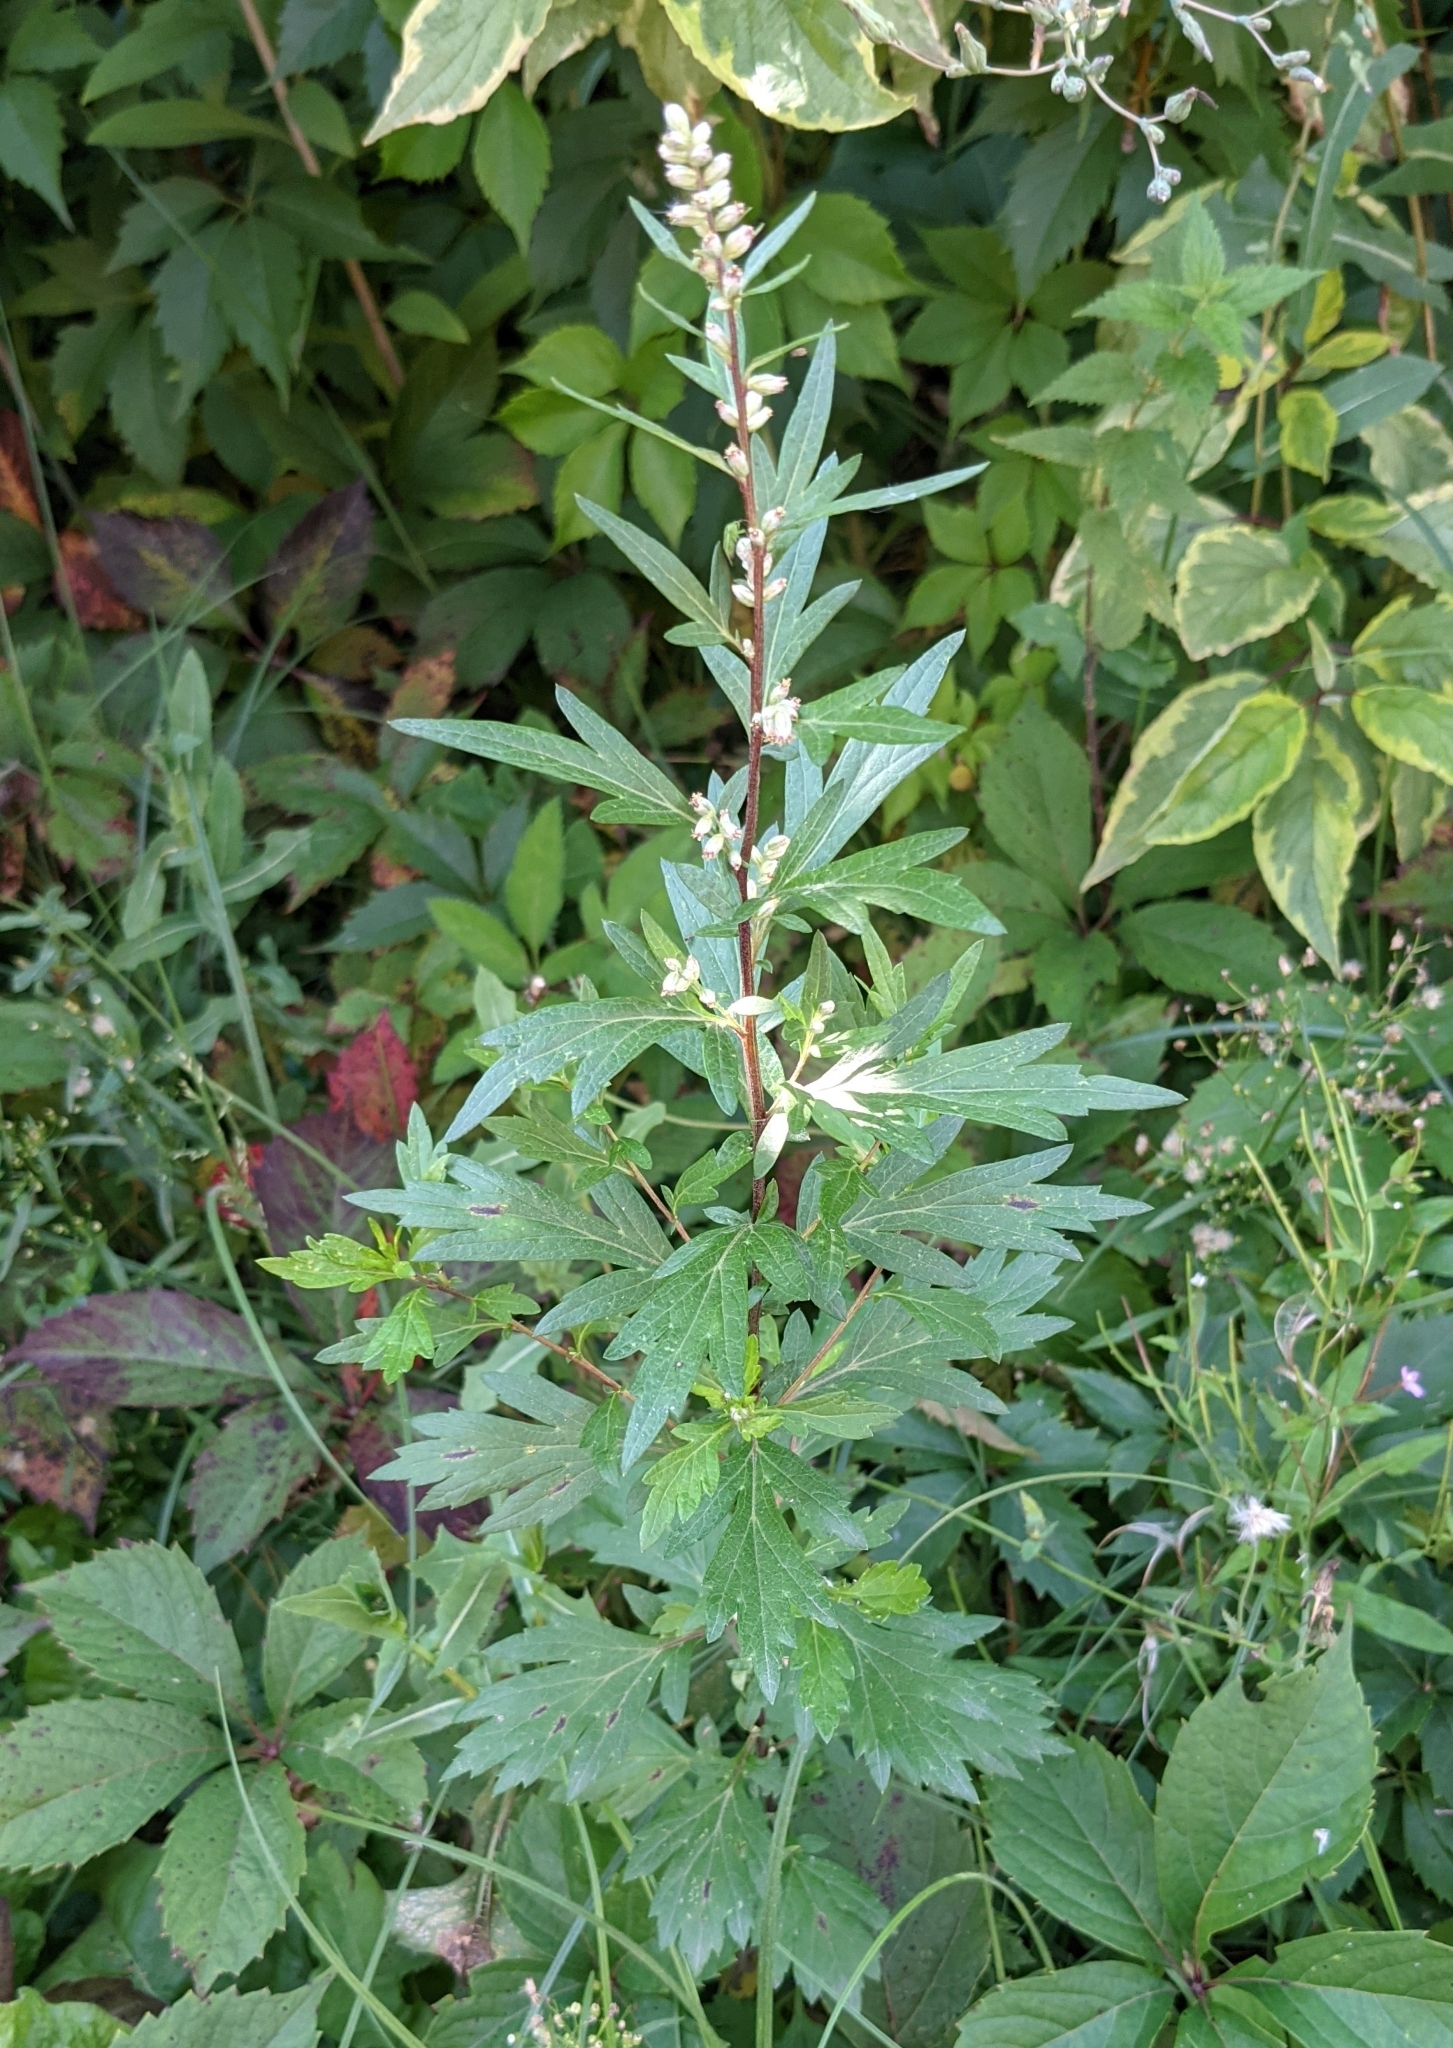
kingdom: Plantae
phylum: Tracheophyta
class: Magnoliopsida
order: Asterales
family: Asteraceae
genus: Artemisia
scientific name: Artemisia vulgaris
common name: Mugwort
